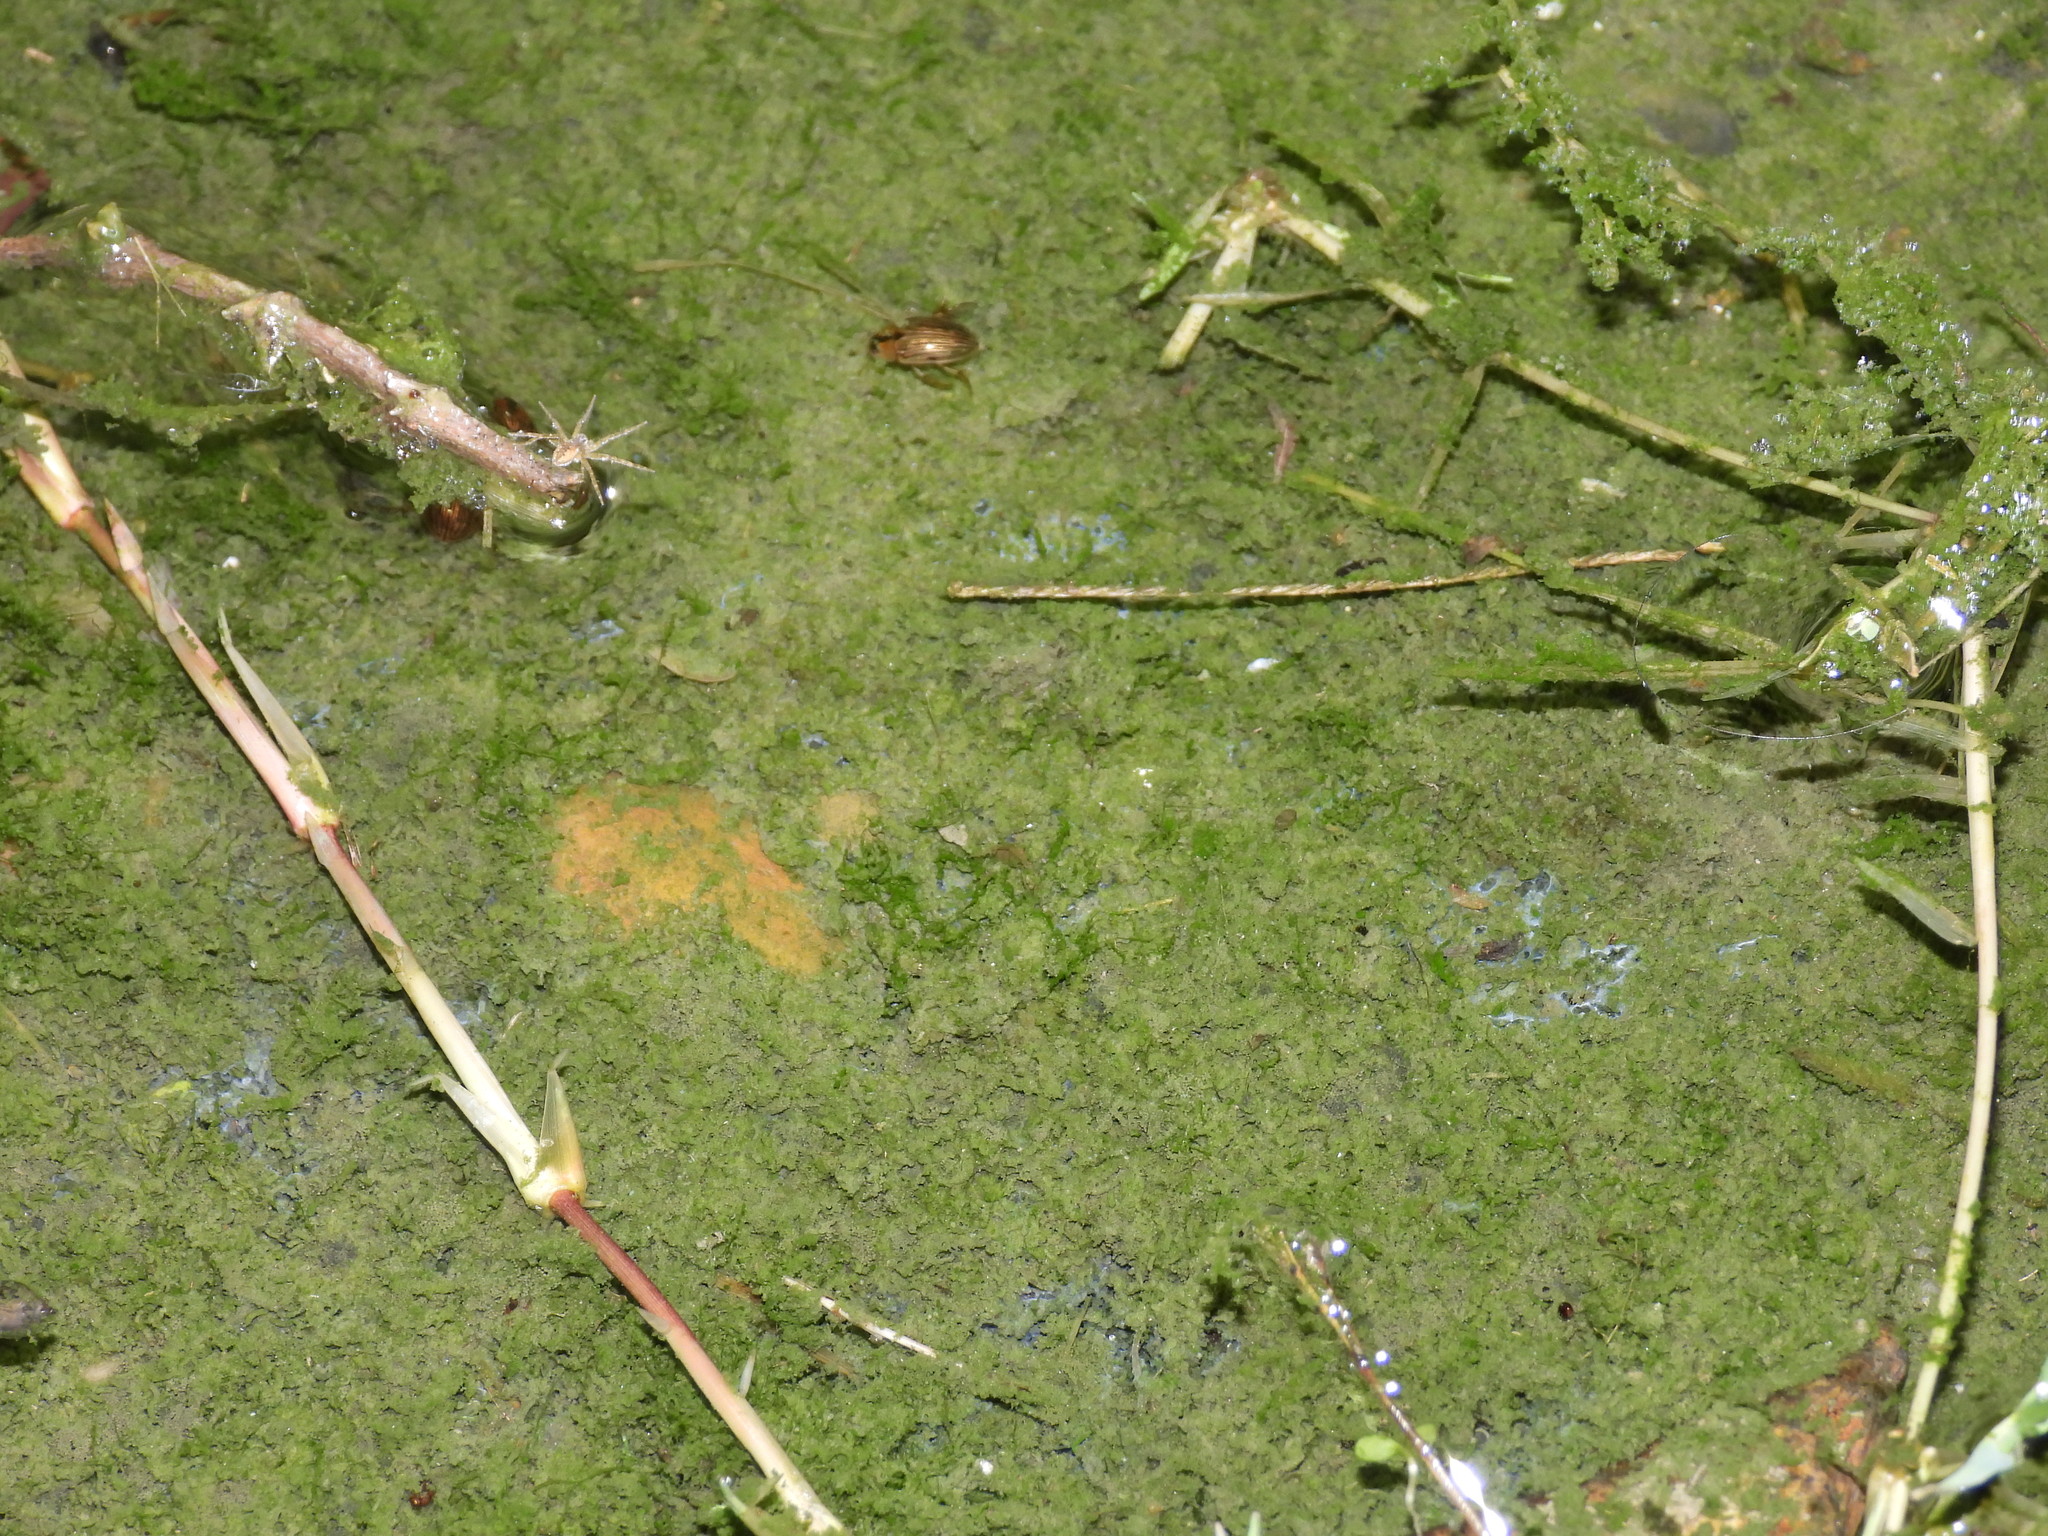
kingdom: Animalia
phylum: Arthropoda
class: Insecta
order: Coleoptera
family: Hydrophilidae
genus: Tropisternus
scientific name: Tropisternus collaris
